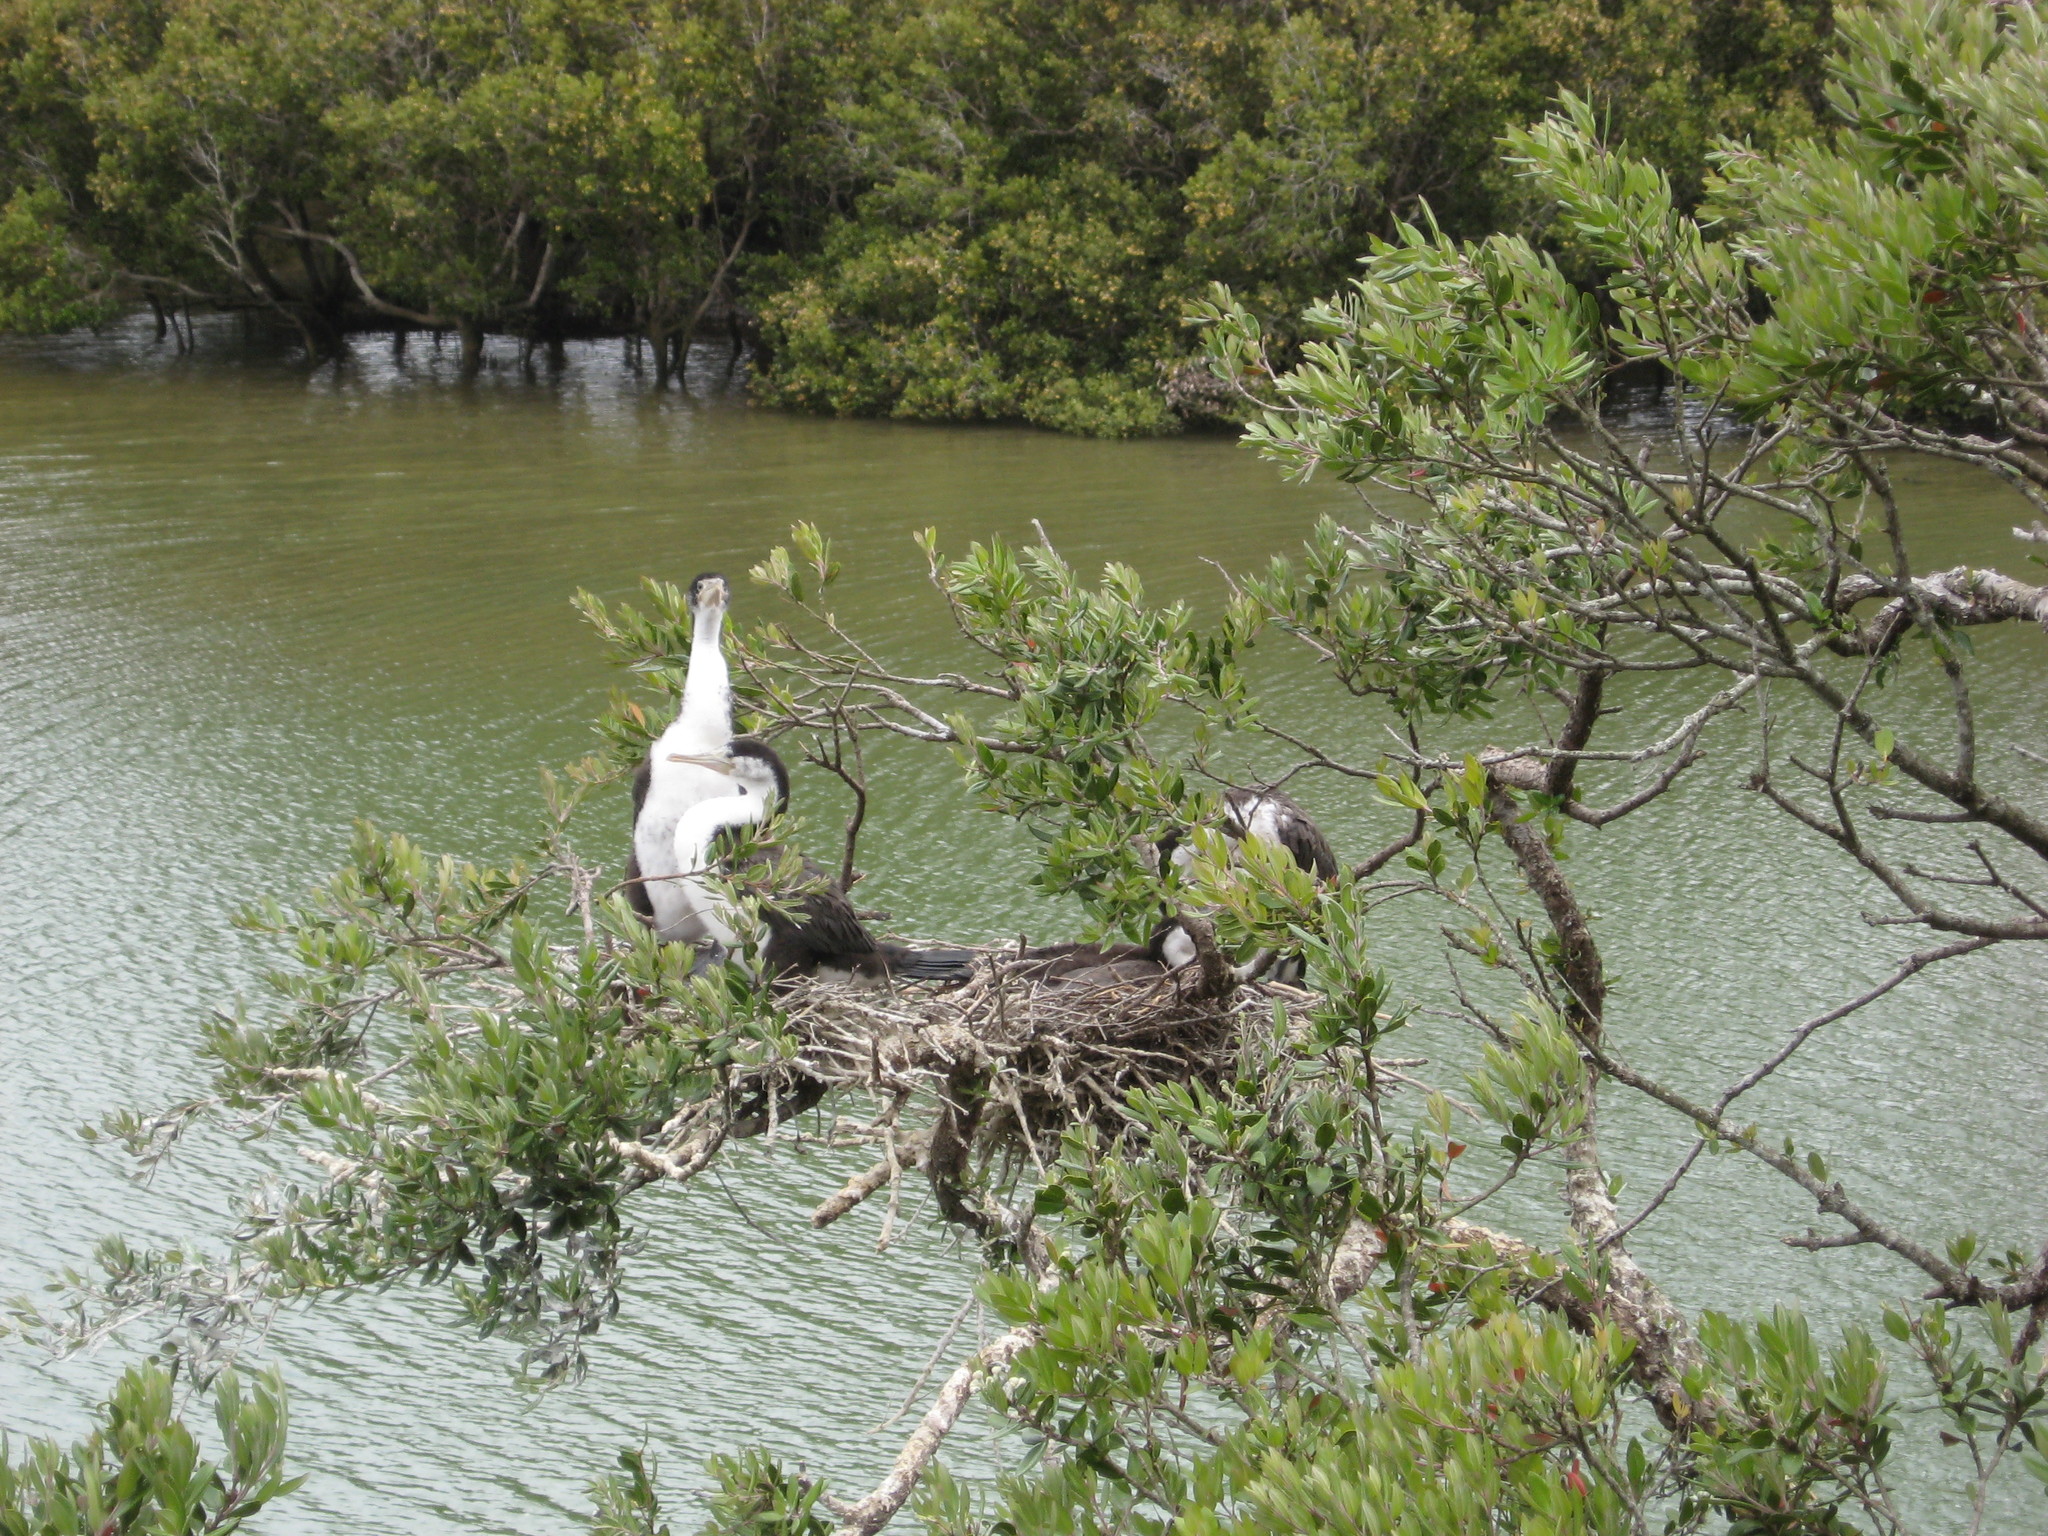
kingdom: Animalia
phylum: Chordata
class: Aves
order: Suliformes
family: Phalacrocoracidae
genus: Phalacrocorax
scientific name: Phalacrocorax varius
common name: Pied cormorant
